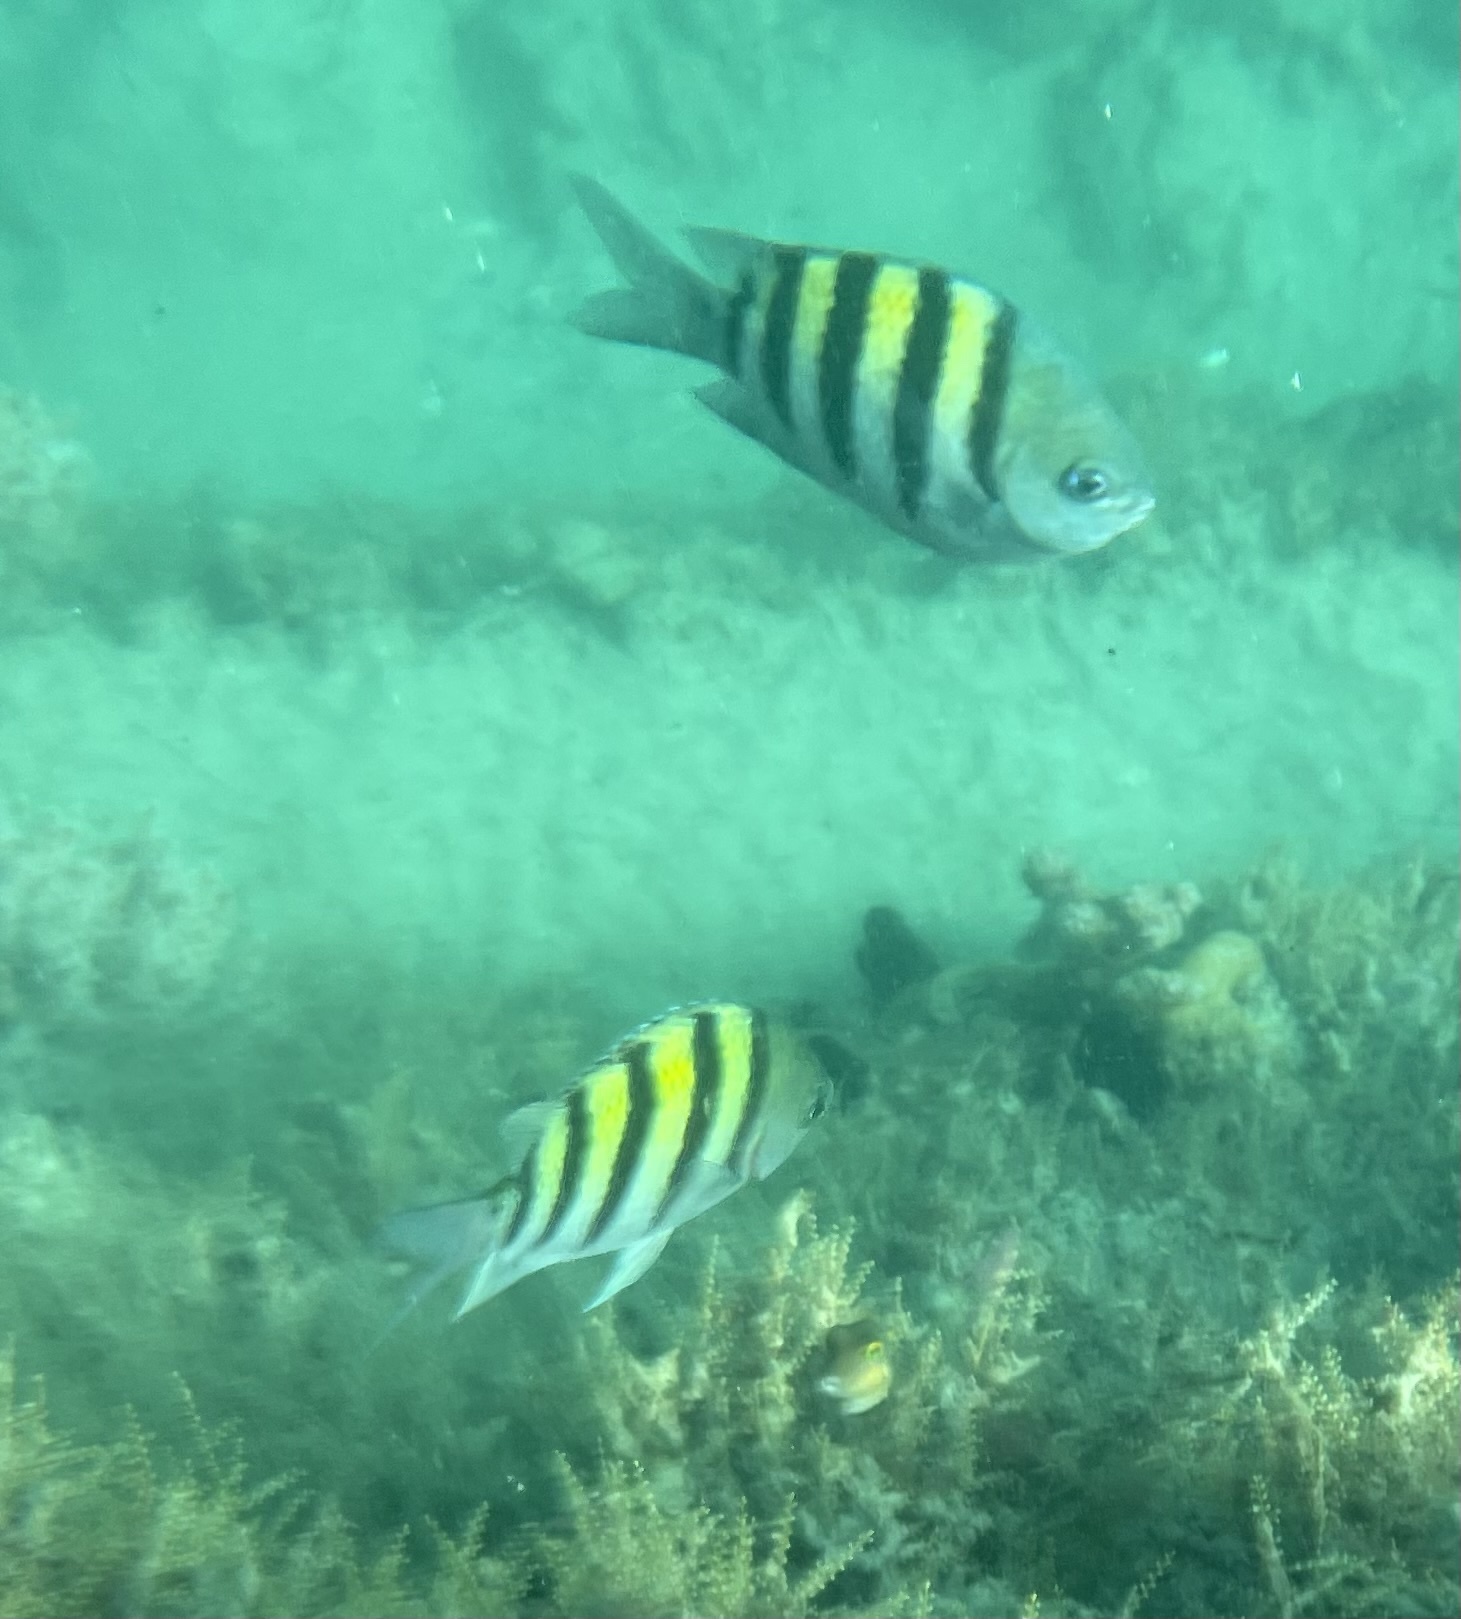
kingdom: Animalia
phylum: Chordata
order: Perciformes
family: Pomacentridae
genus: Abudefduf
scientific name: Abudefduf saxatilis
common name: Sergeant major
